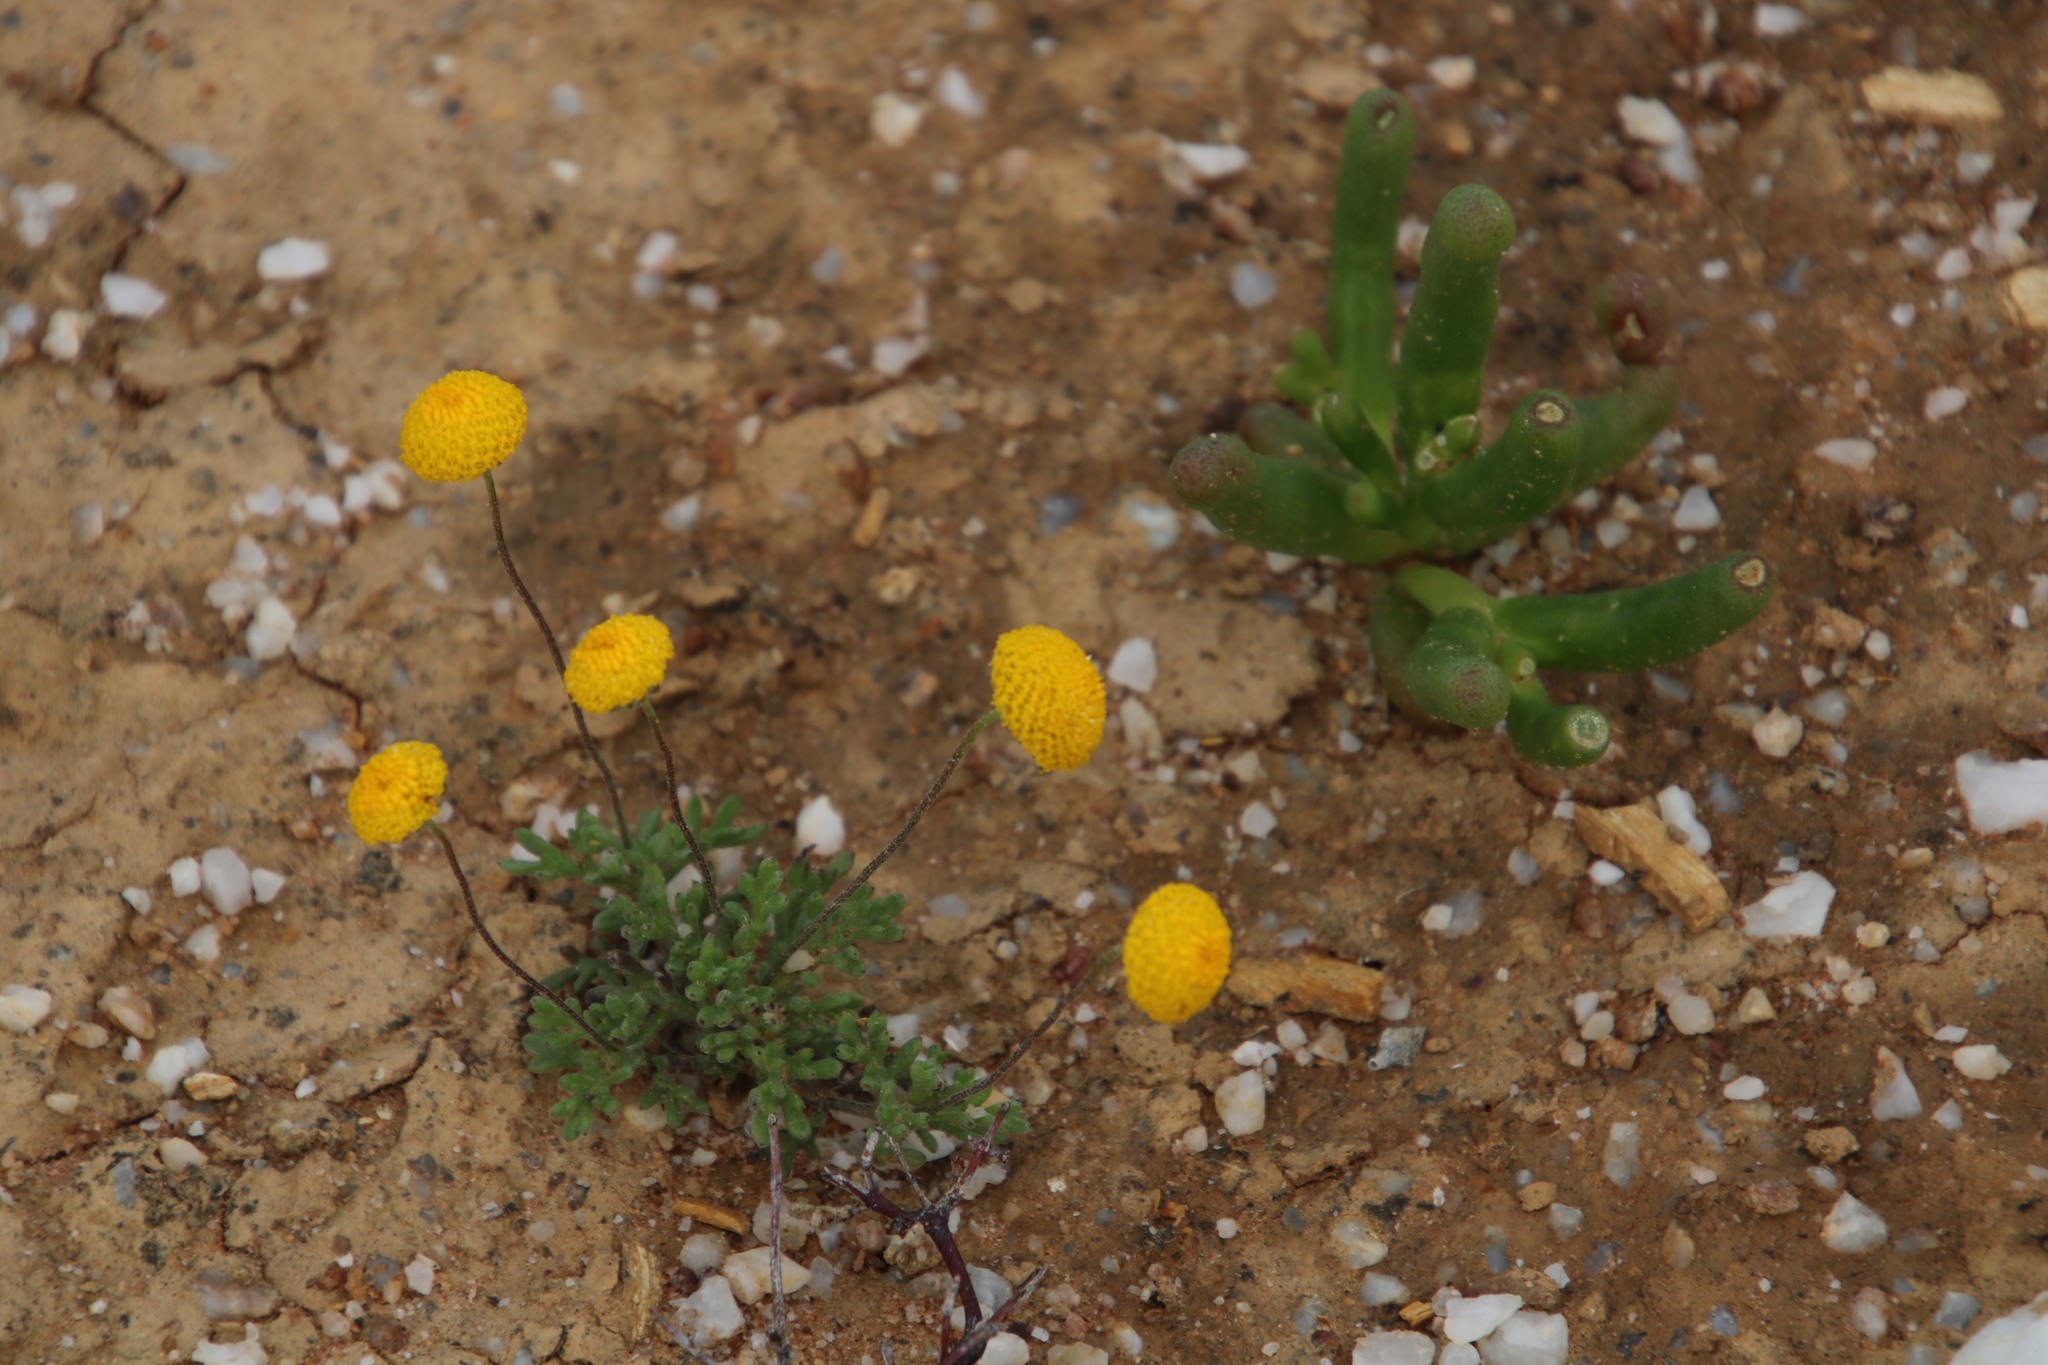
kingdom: Plantae
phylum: Tracheophyta
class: Magnoliopsida
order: Asterales
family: Asteraceae
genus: Lasiospermum
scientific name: Lasiospermum pedunculare
